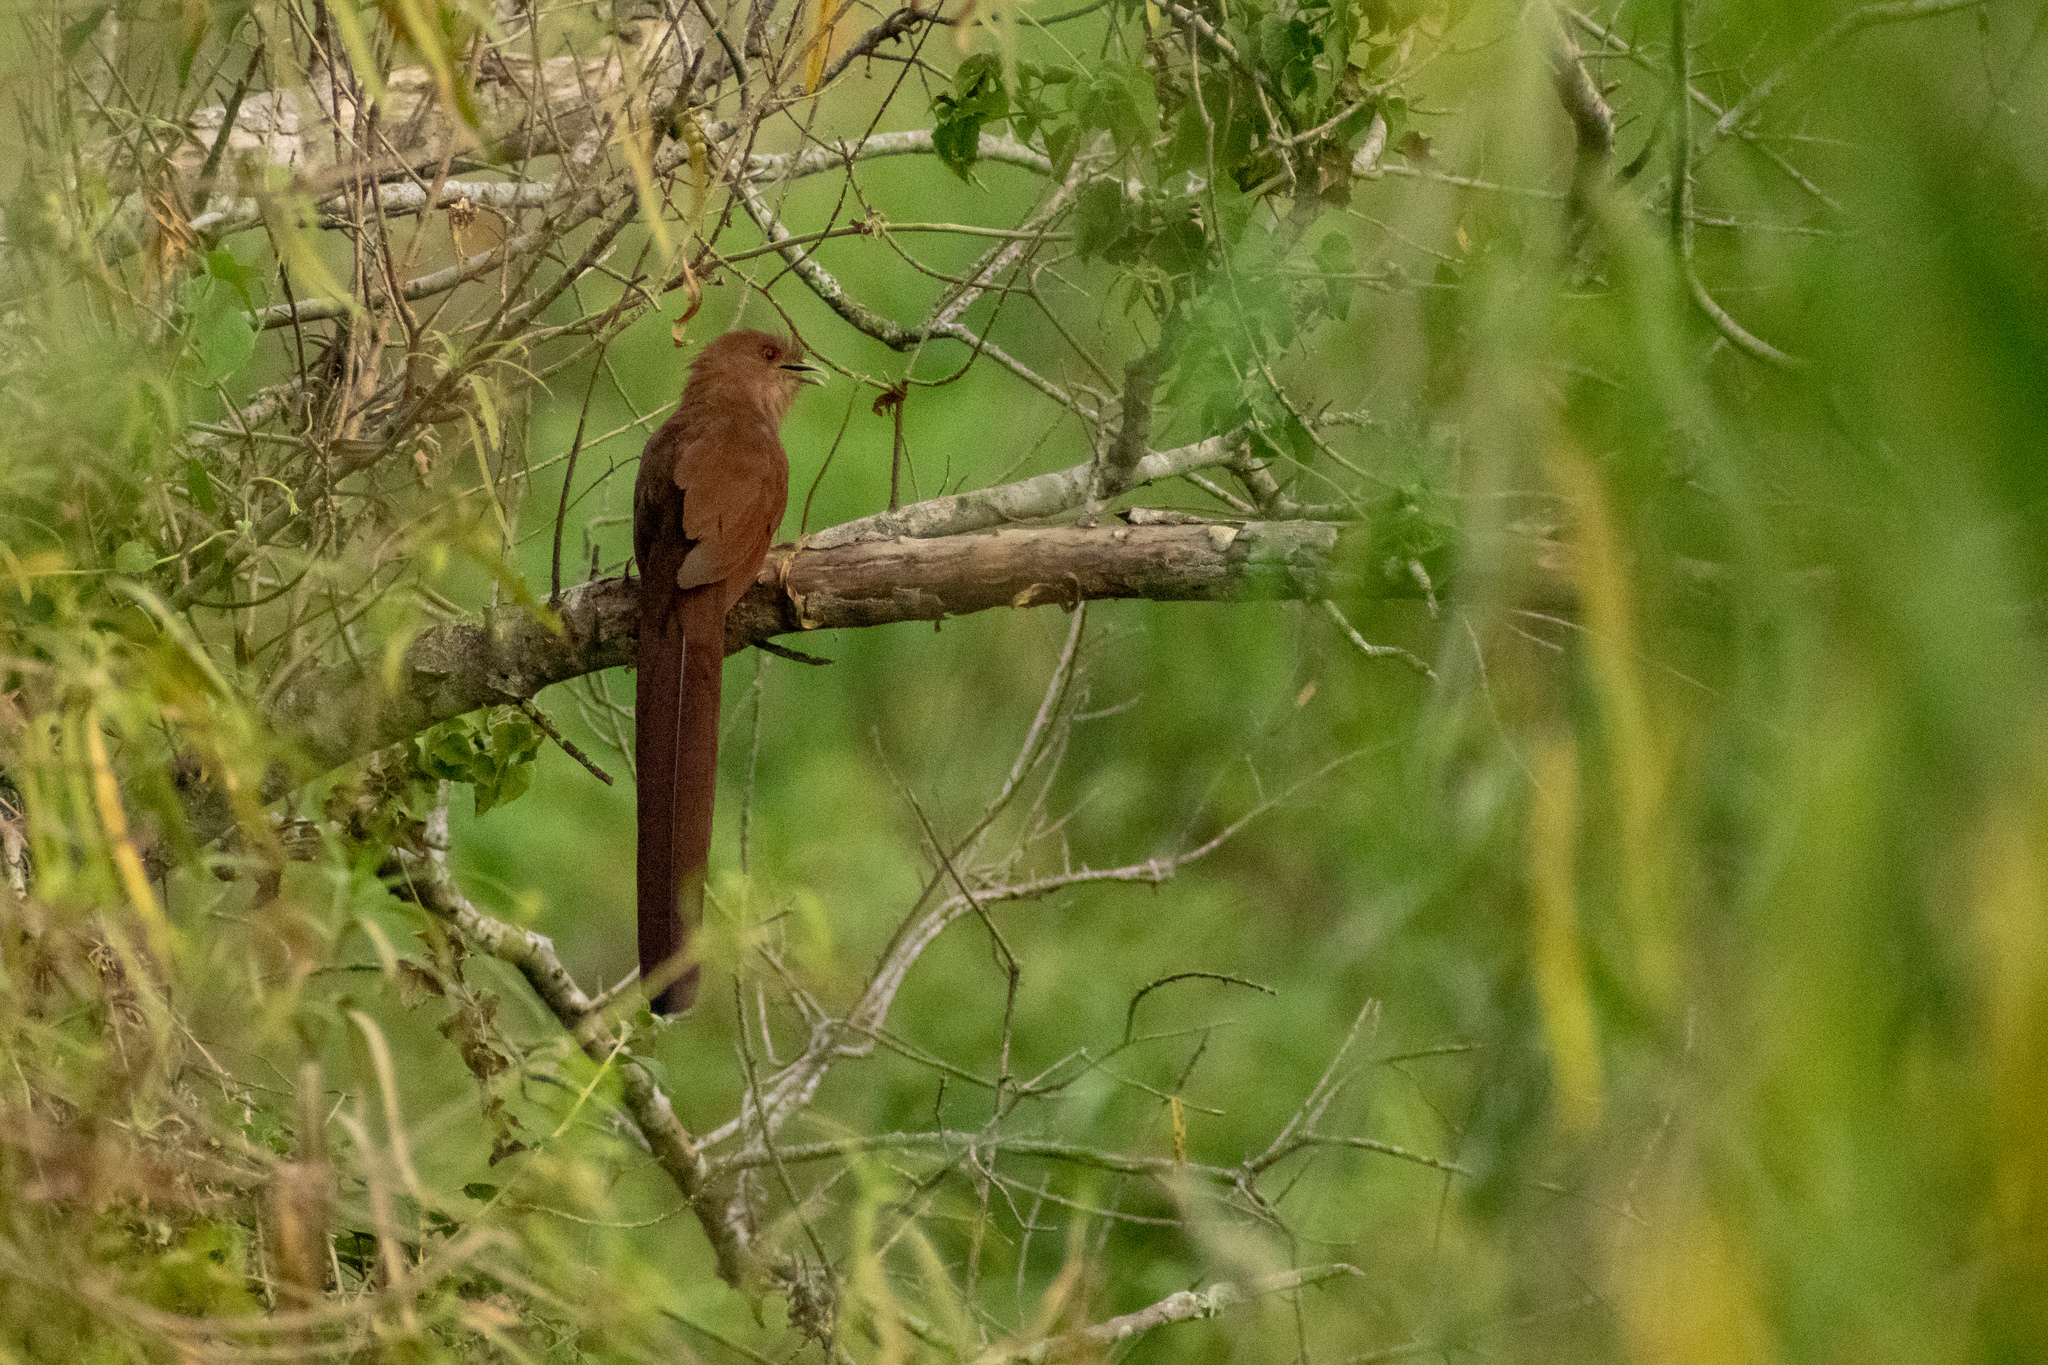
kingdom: Animalia
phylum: Chordata
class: Aves
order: Cuculiformes
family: Cuculidae
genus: Piaya
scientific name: Piaya cayana
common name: Squirrel cuckoo
